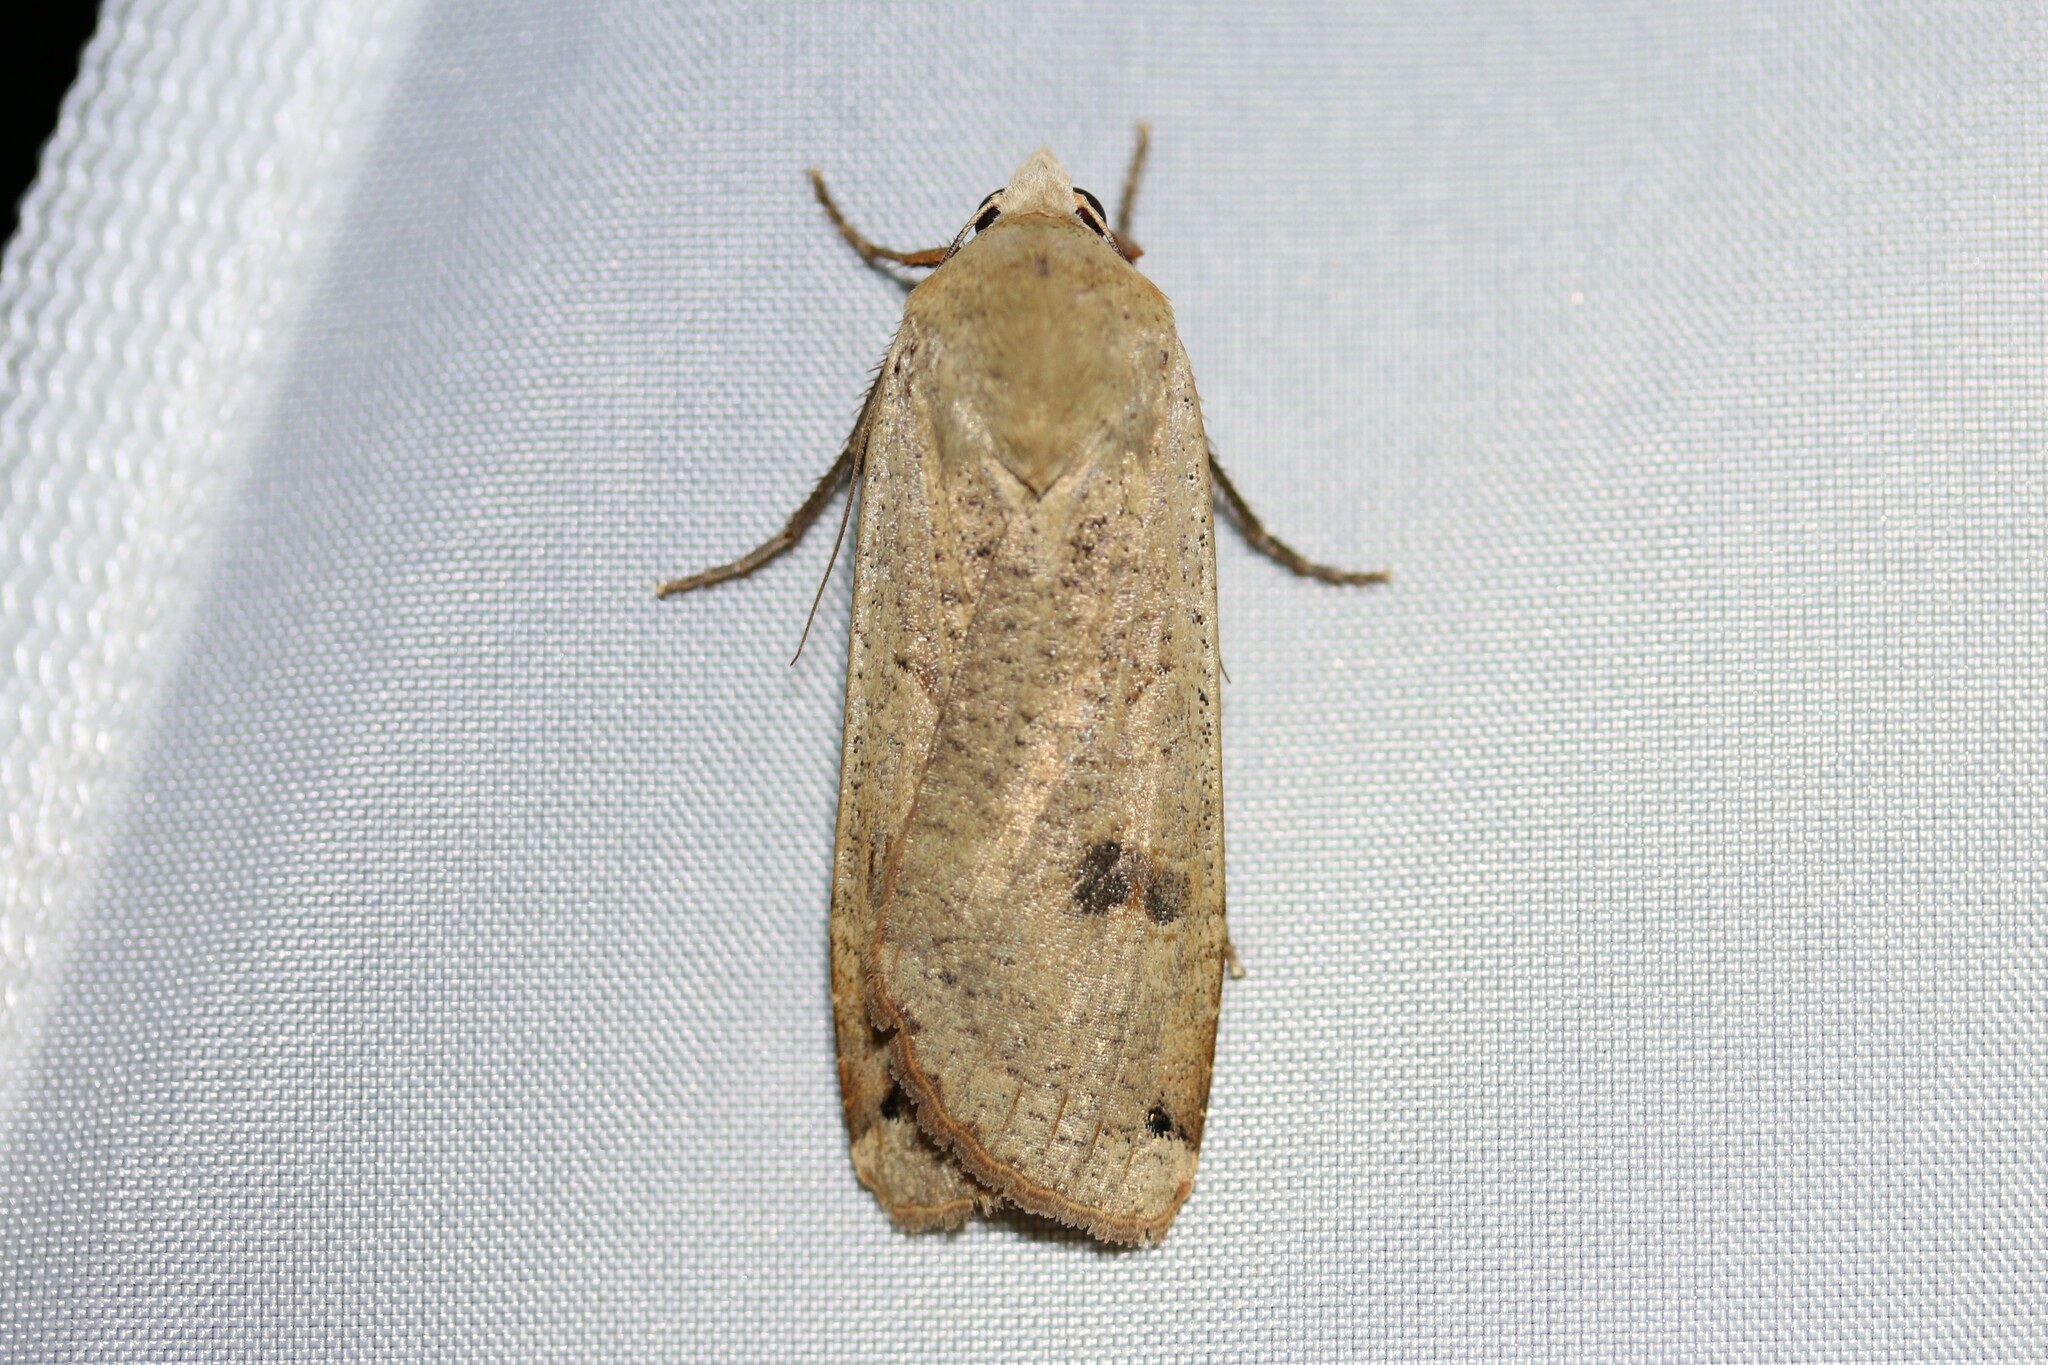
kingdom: Animalia
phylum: Arthropoda
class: Insecta
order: Lepidoptera
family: Noctuidae
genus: Noctua
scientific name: Noctua pronuba
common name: Large yellow underwing
